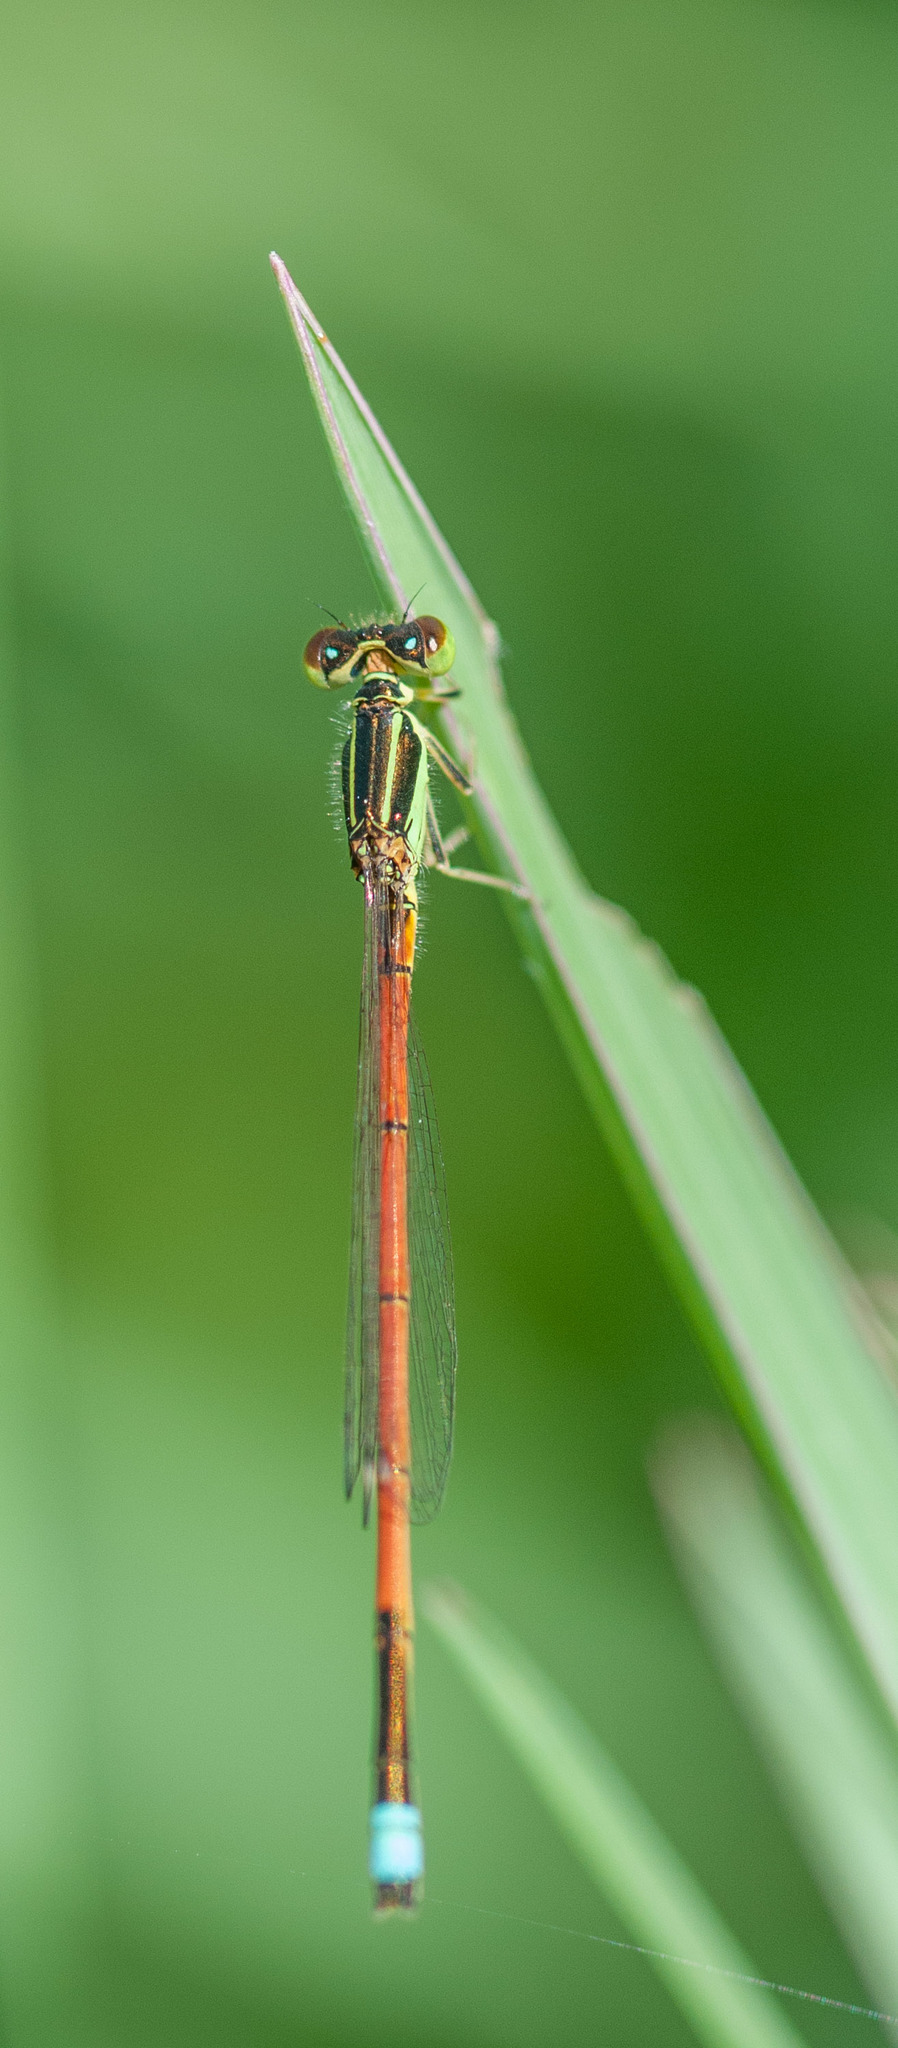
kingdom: Animalia
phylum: Arthropoda
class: Insecta
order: Odonata
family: Coenagrionidae
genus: Ischnura
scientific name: Ischnura aurora
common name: Gossamer damselfly
